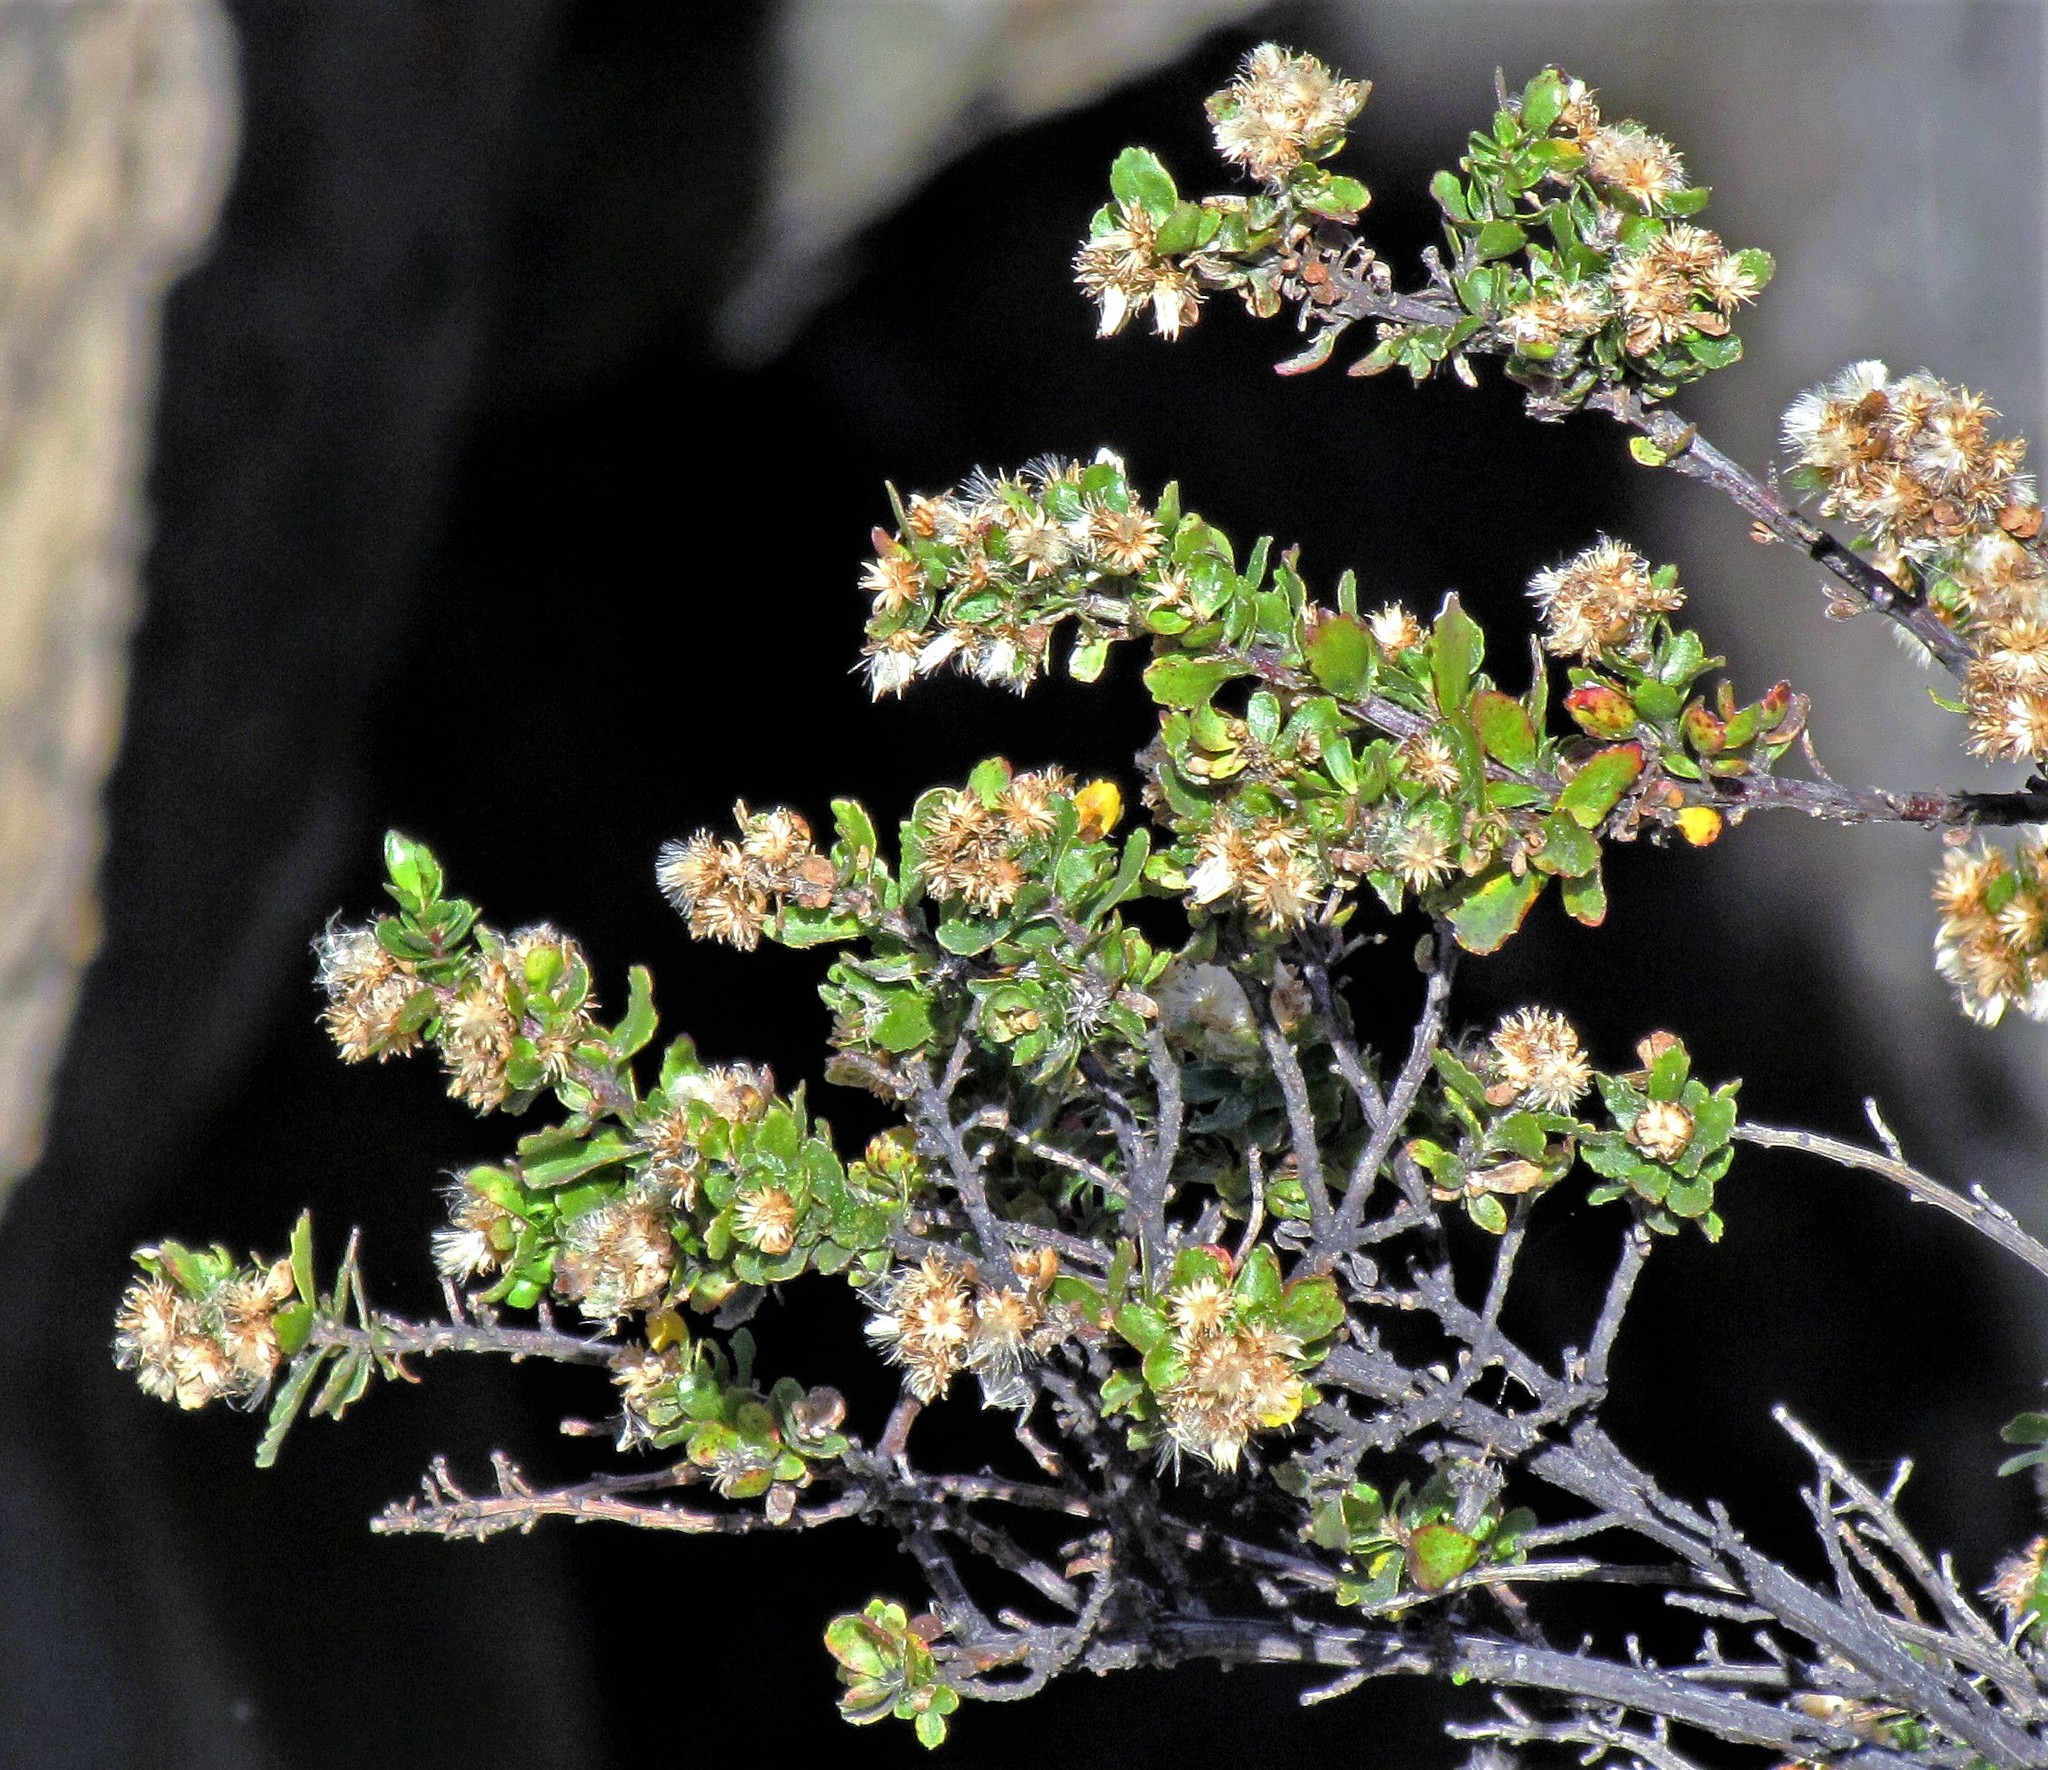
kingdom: Plantae
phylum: Tracheophyta
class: Magnoliopsida
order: Asterales
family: Asteraceae
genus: Baccharis
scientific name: Baccharis magellanica
